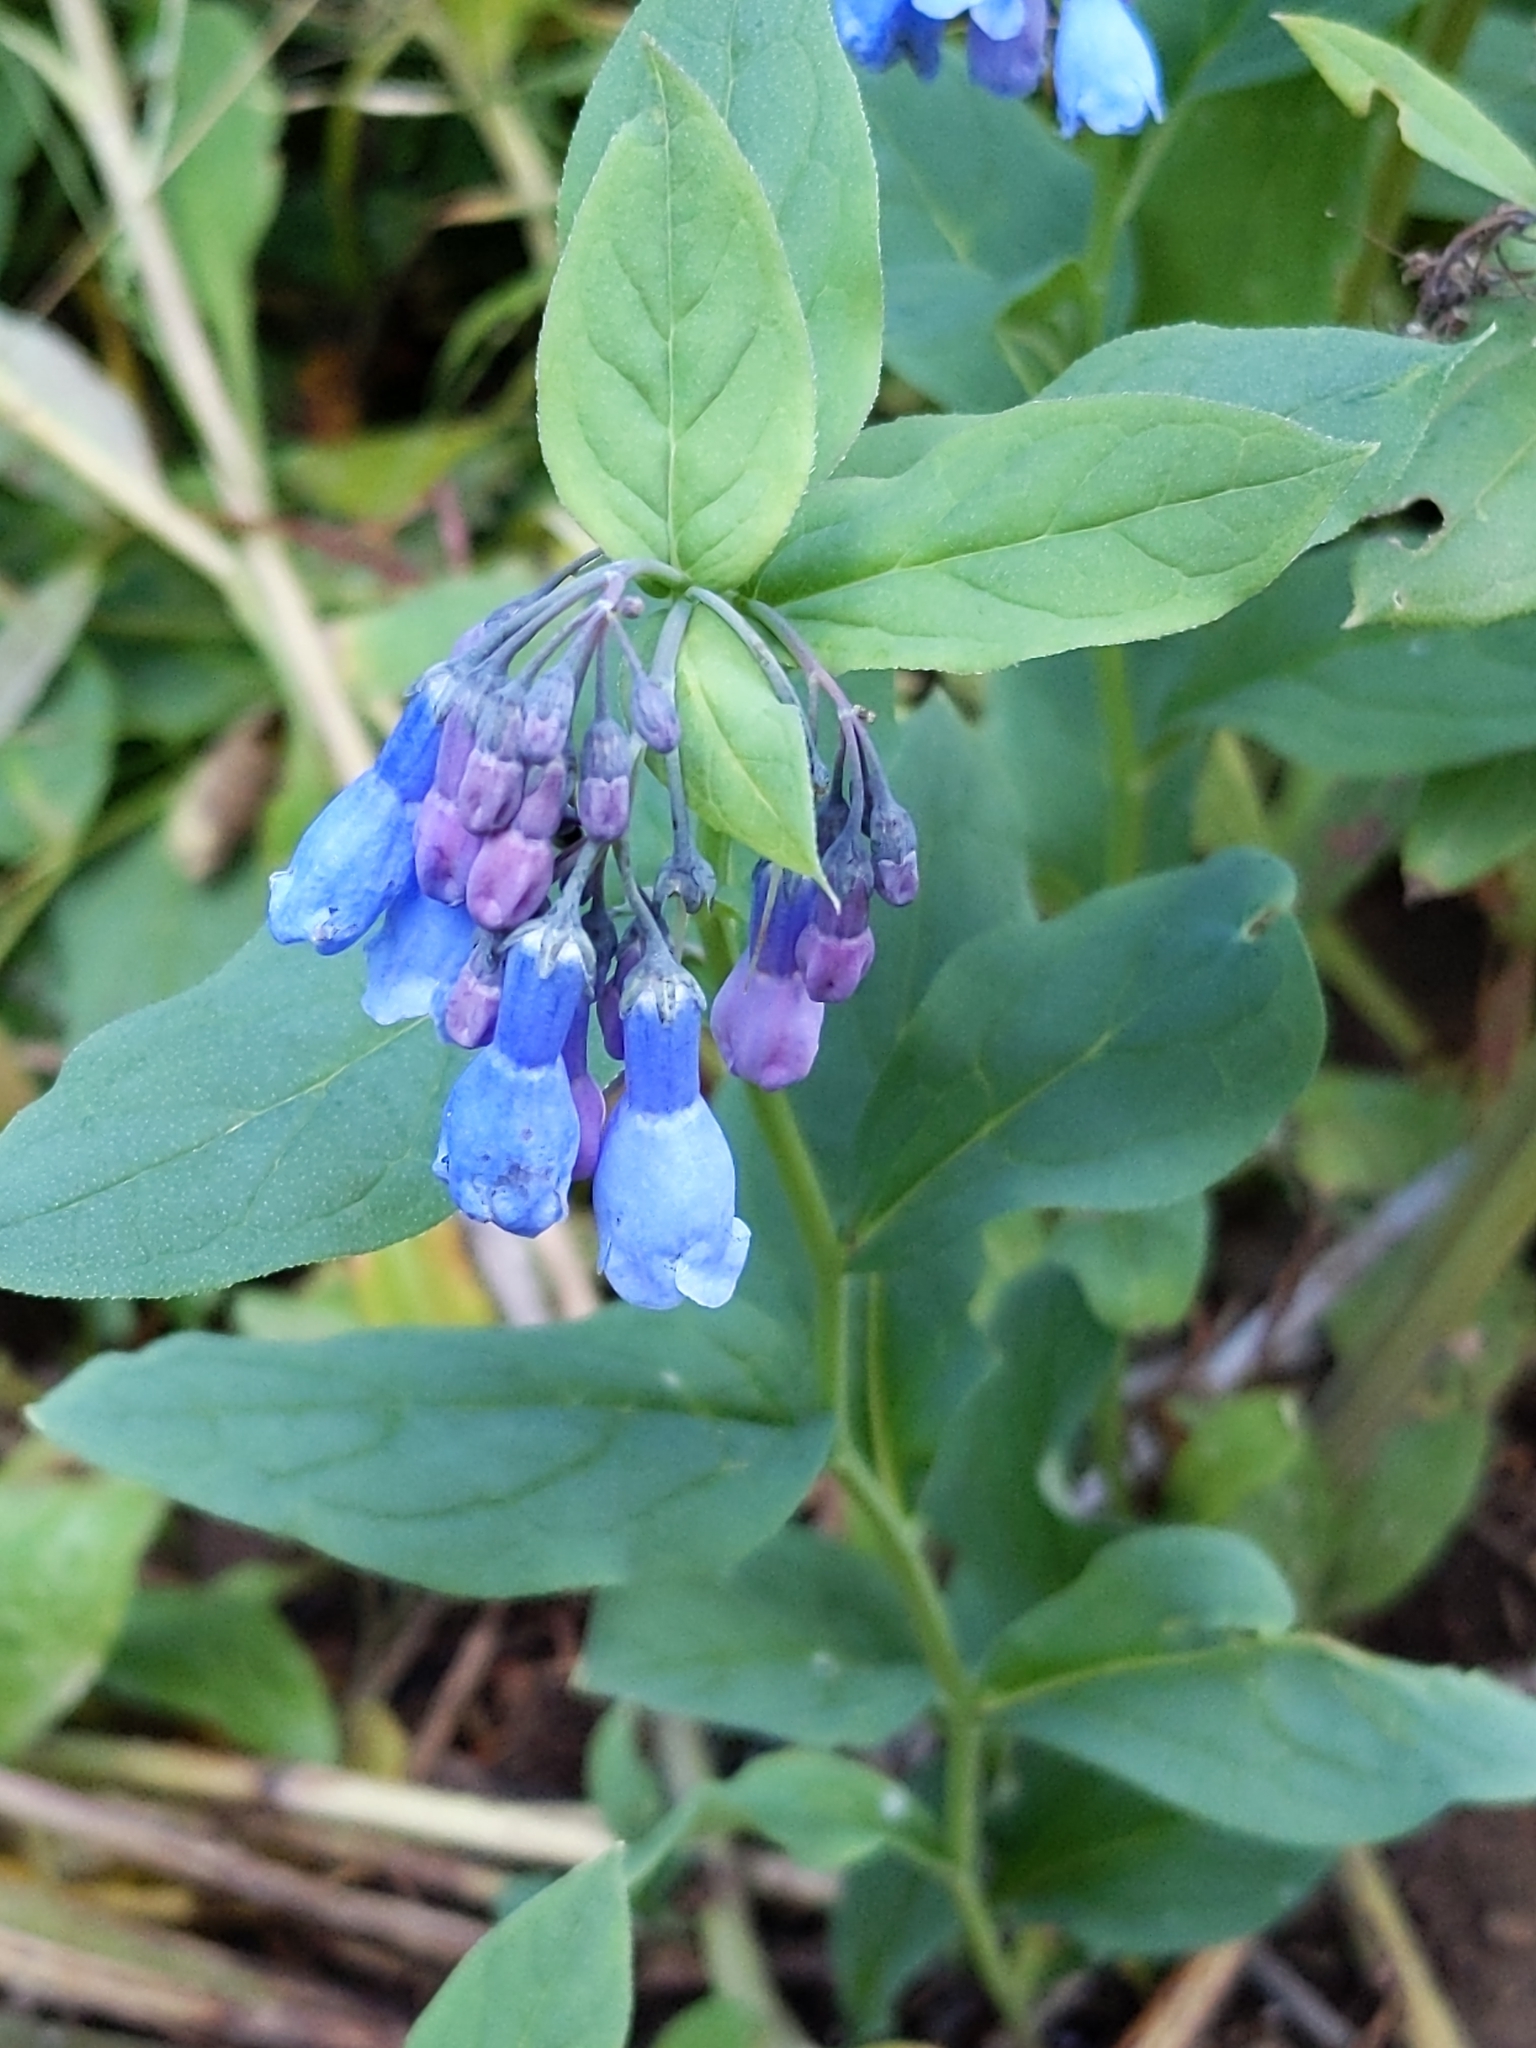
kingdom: Plantae
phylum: Tracheophyta
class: Magnoliopsida
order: Boraginales
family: Boraginaceae
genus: Mertensia
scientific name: Mertensia ciliata
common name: Tall chiming-bells
